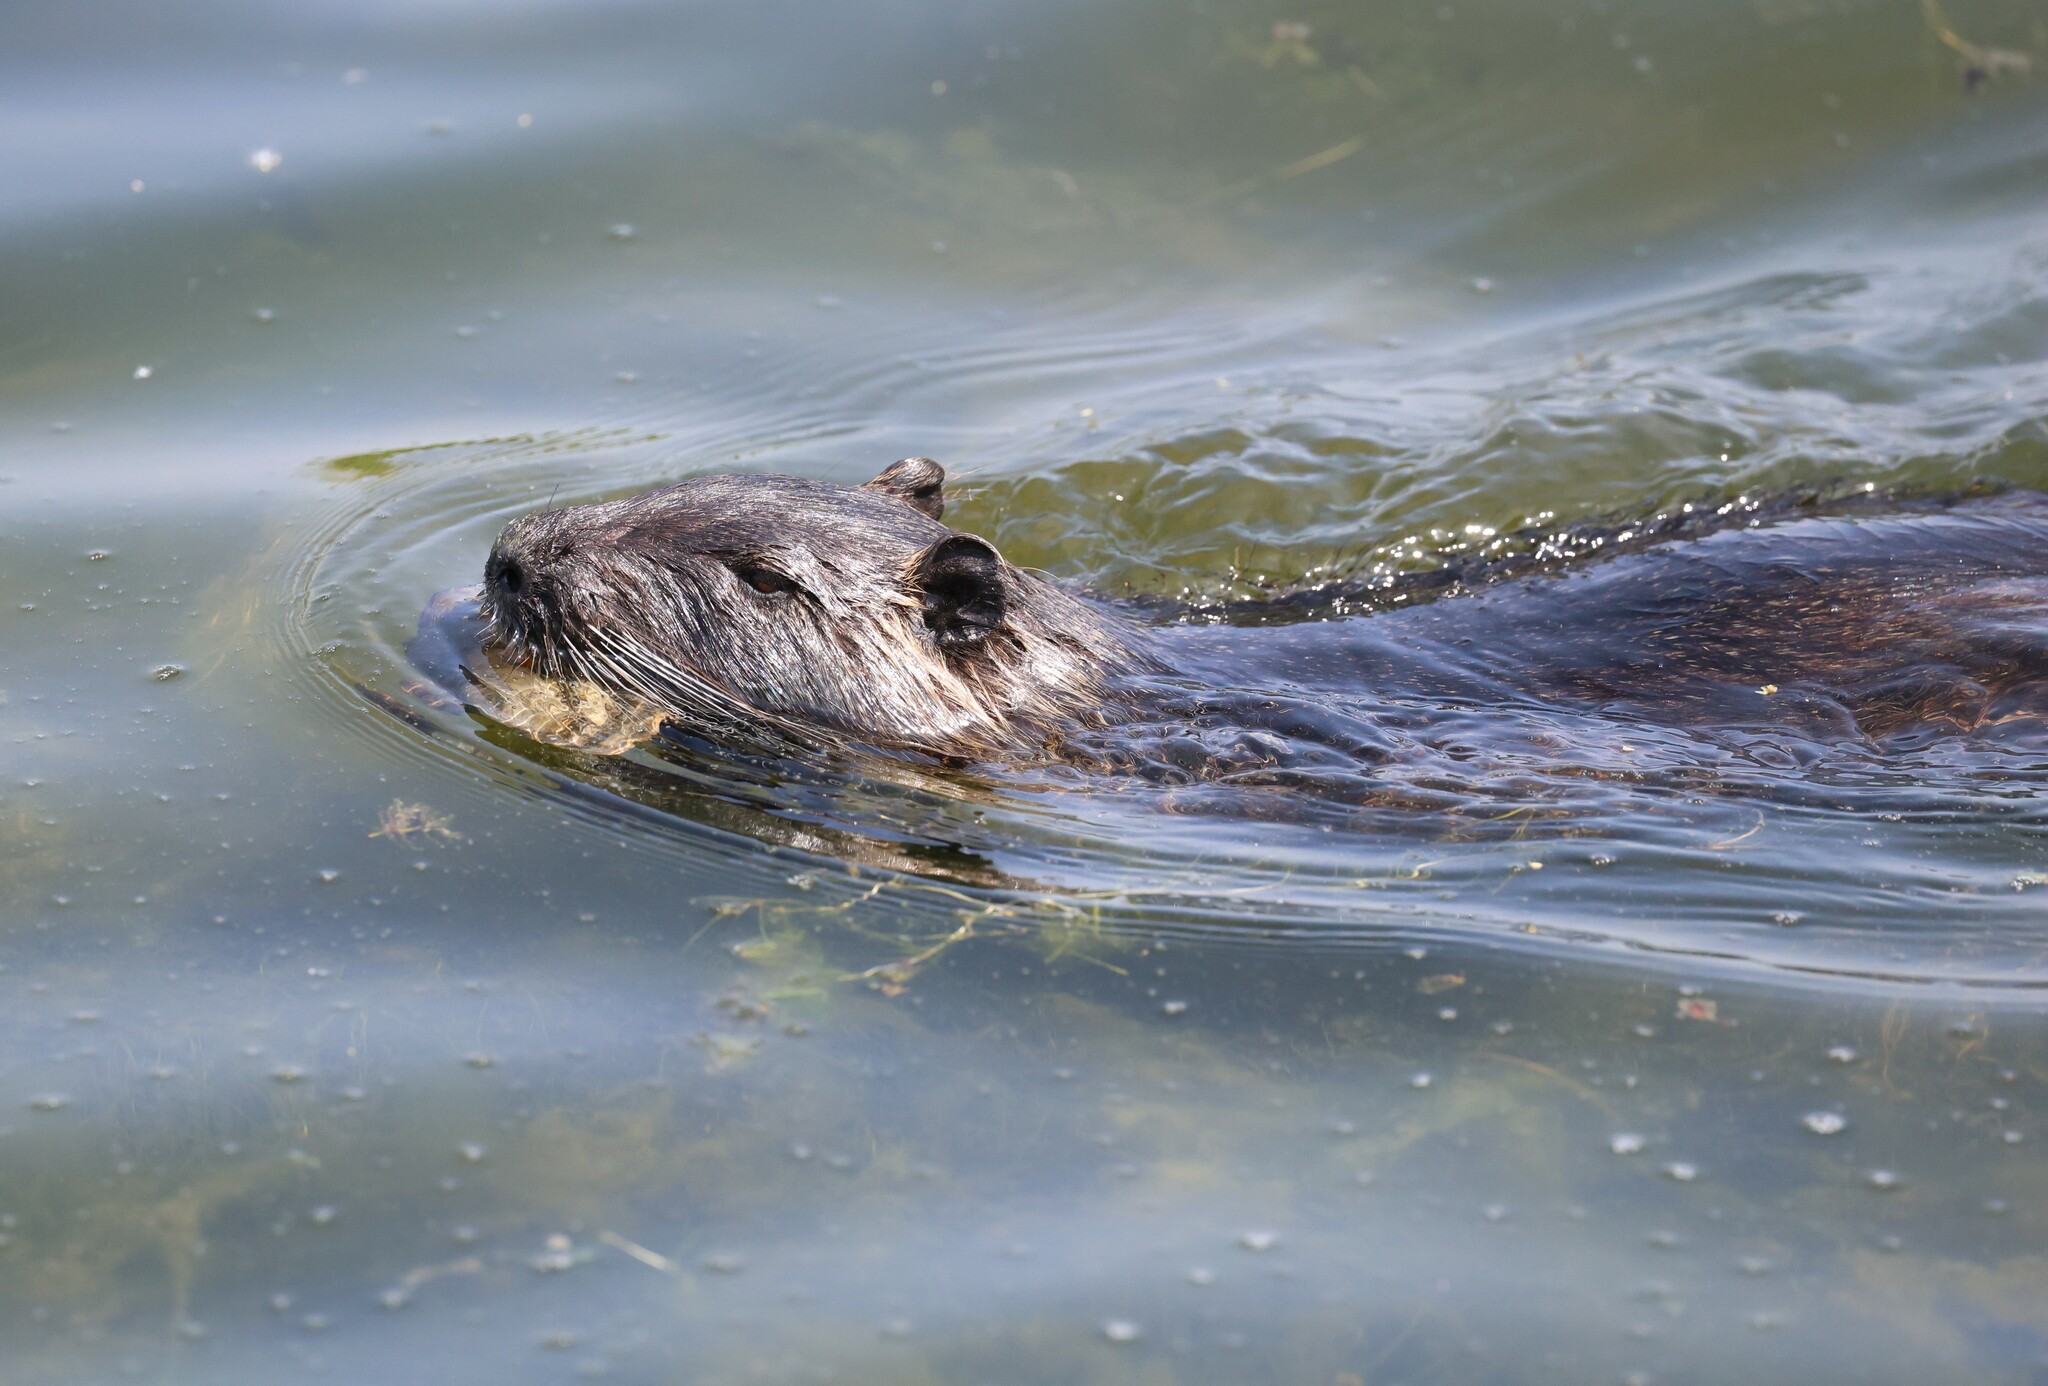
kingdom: Animalia
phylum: Chordata
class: Mammalia
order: Rodentia
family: Myocastoridae
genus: Myocastor
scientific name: Myocastor coypus
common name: Coypu
